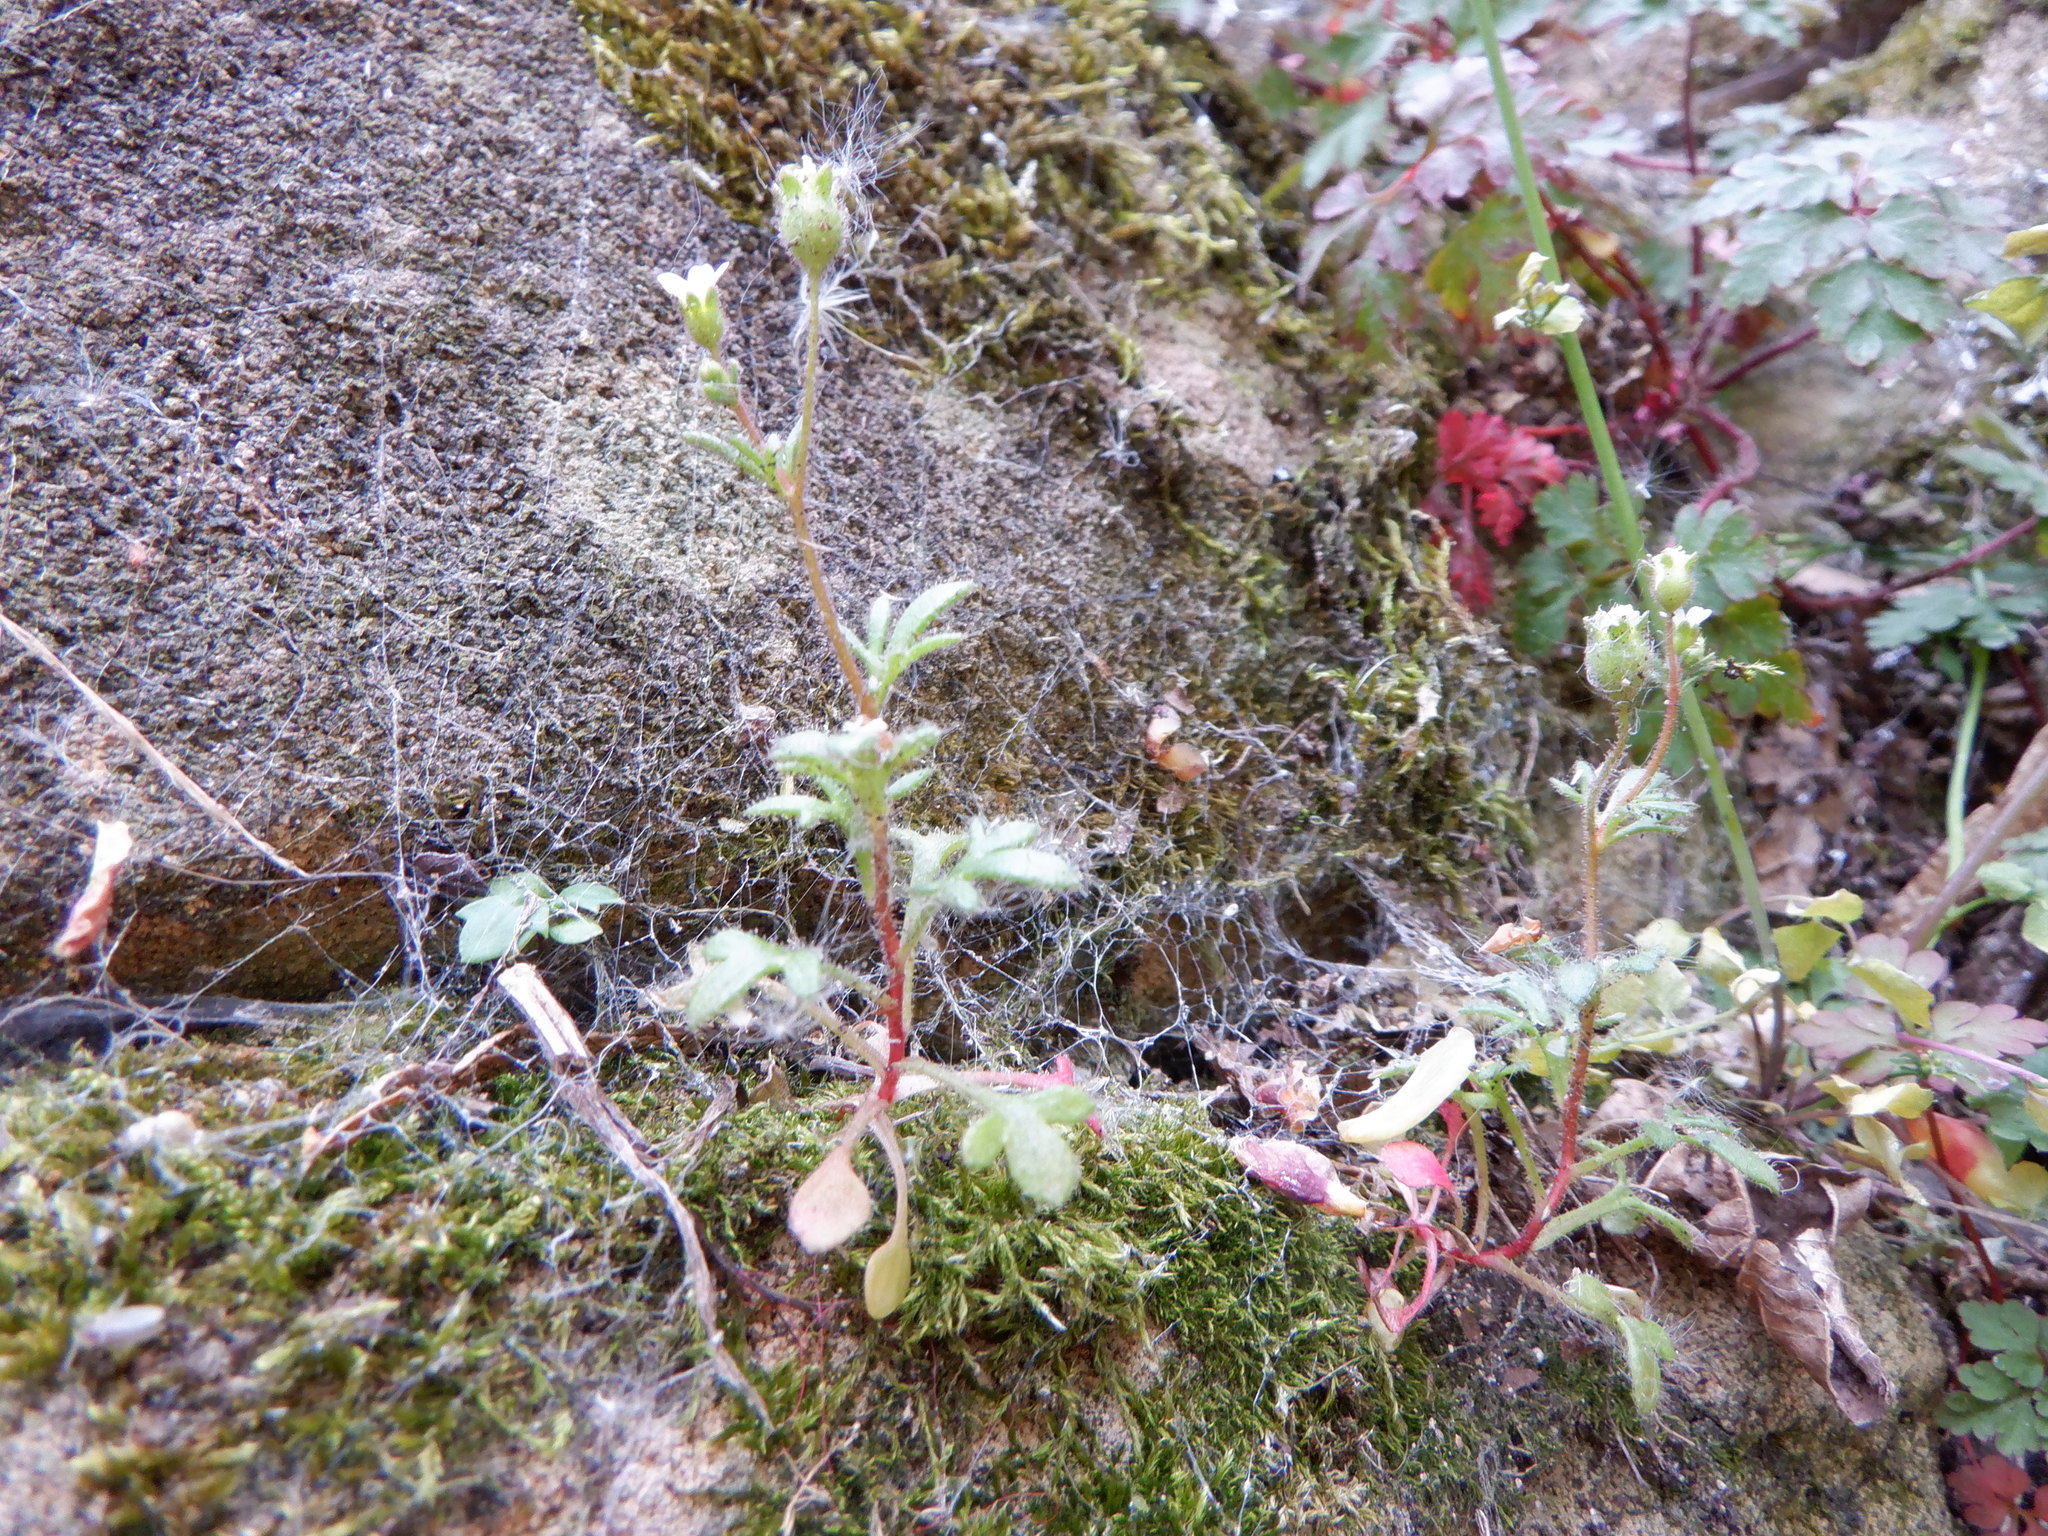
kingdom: Plantae
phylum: Tracheophyta
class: Magnoliopsida
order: Saxifragales
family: Saxifragaceae
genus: Saxifraga
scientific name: Saxifraga tridactylites
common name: Rue-leaved saxifrage
